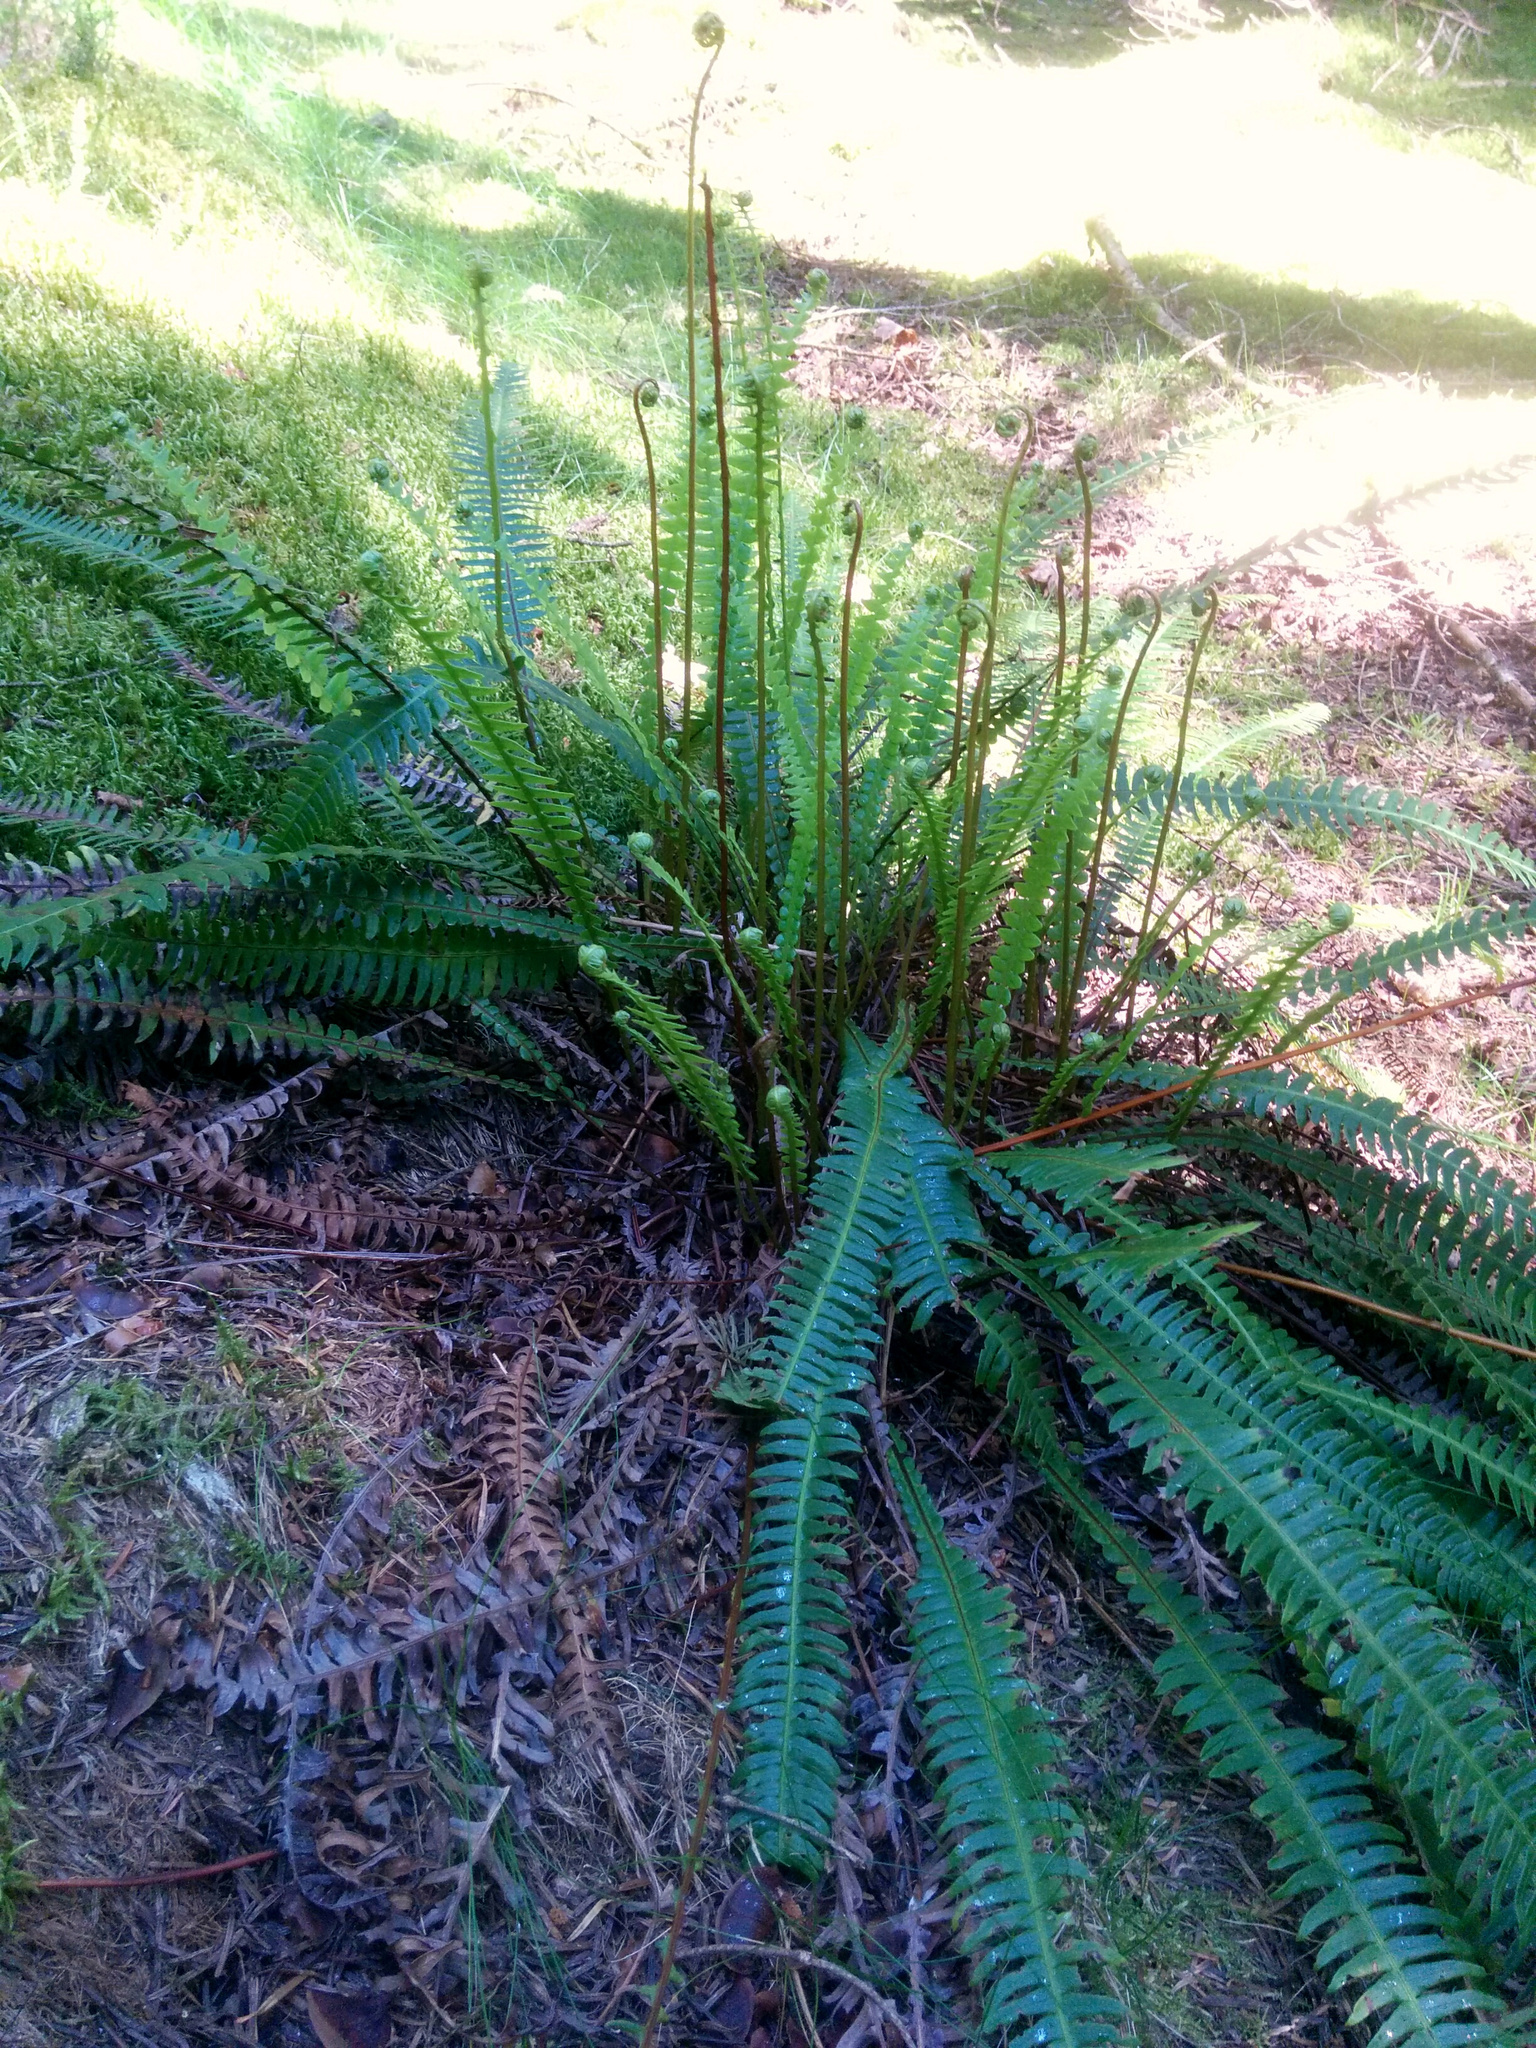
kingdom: Plantae
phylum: Tracheophyta
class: Polypodiopsida
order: Polypodiales
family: Blechnaceae
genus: Struthiopteris
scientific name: Struthiopteris spicant
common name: Deer fern
